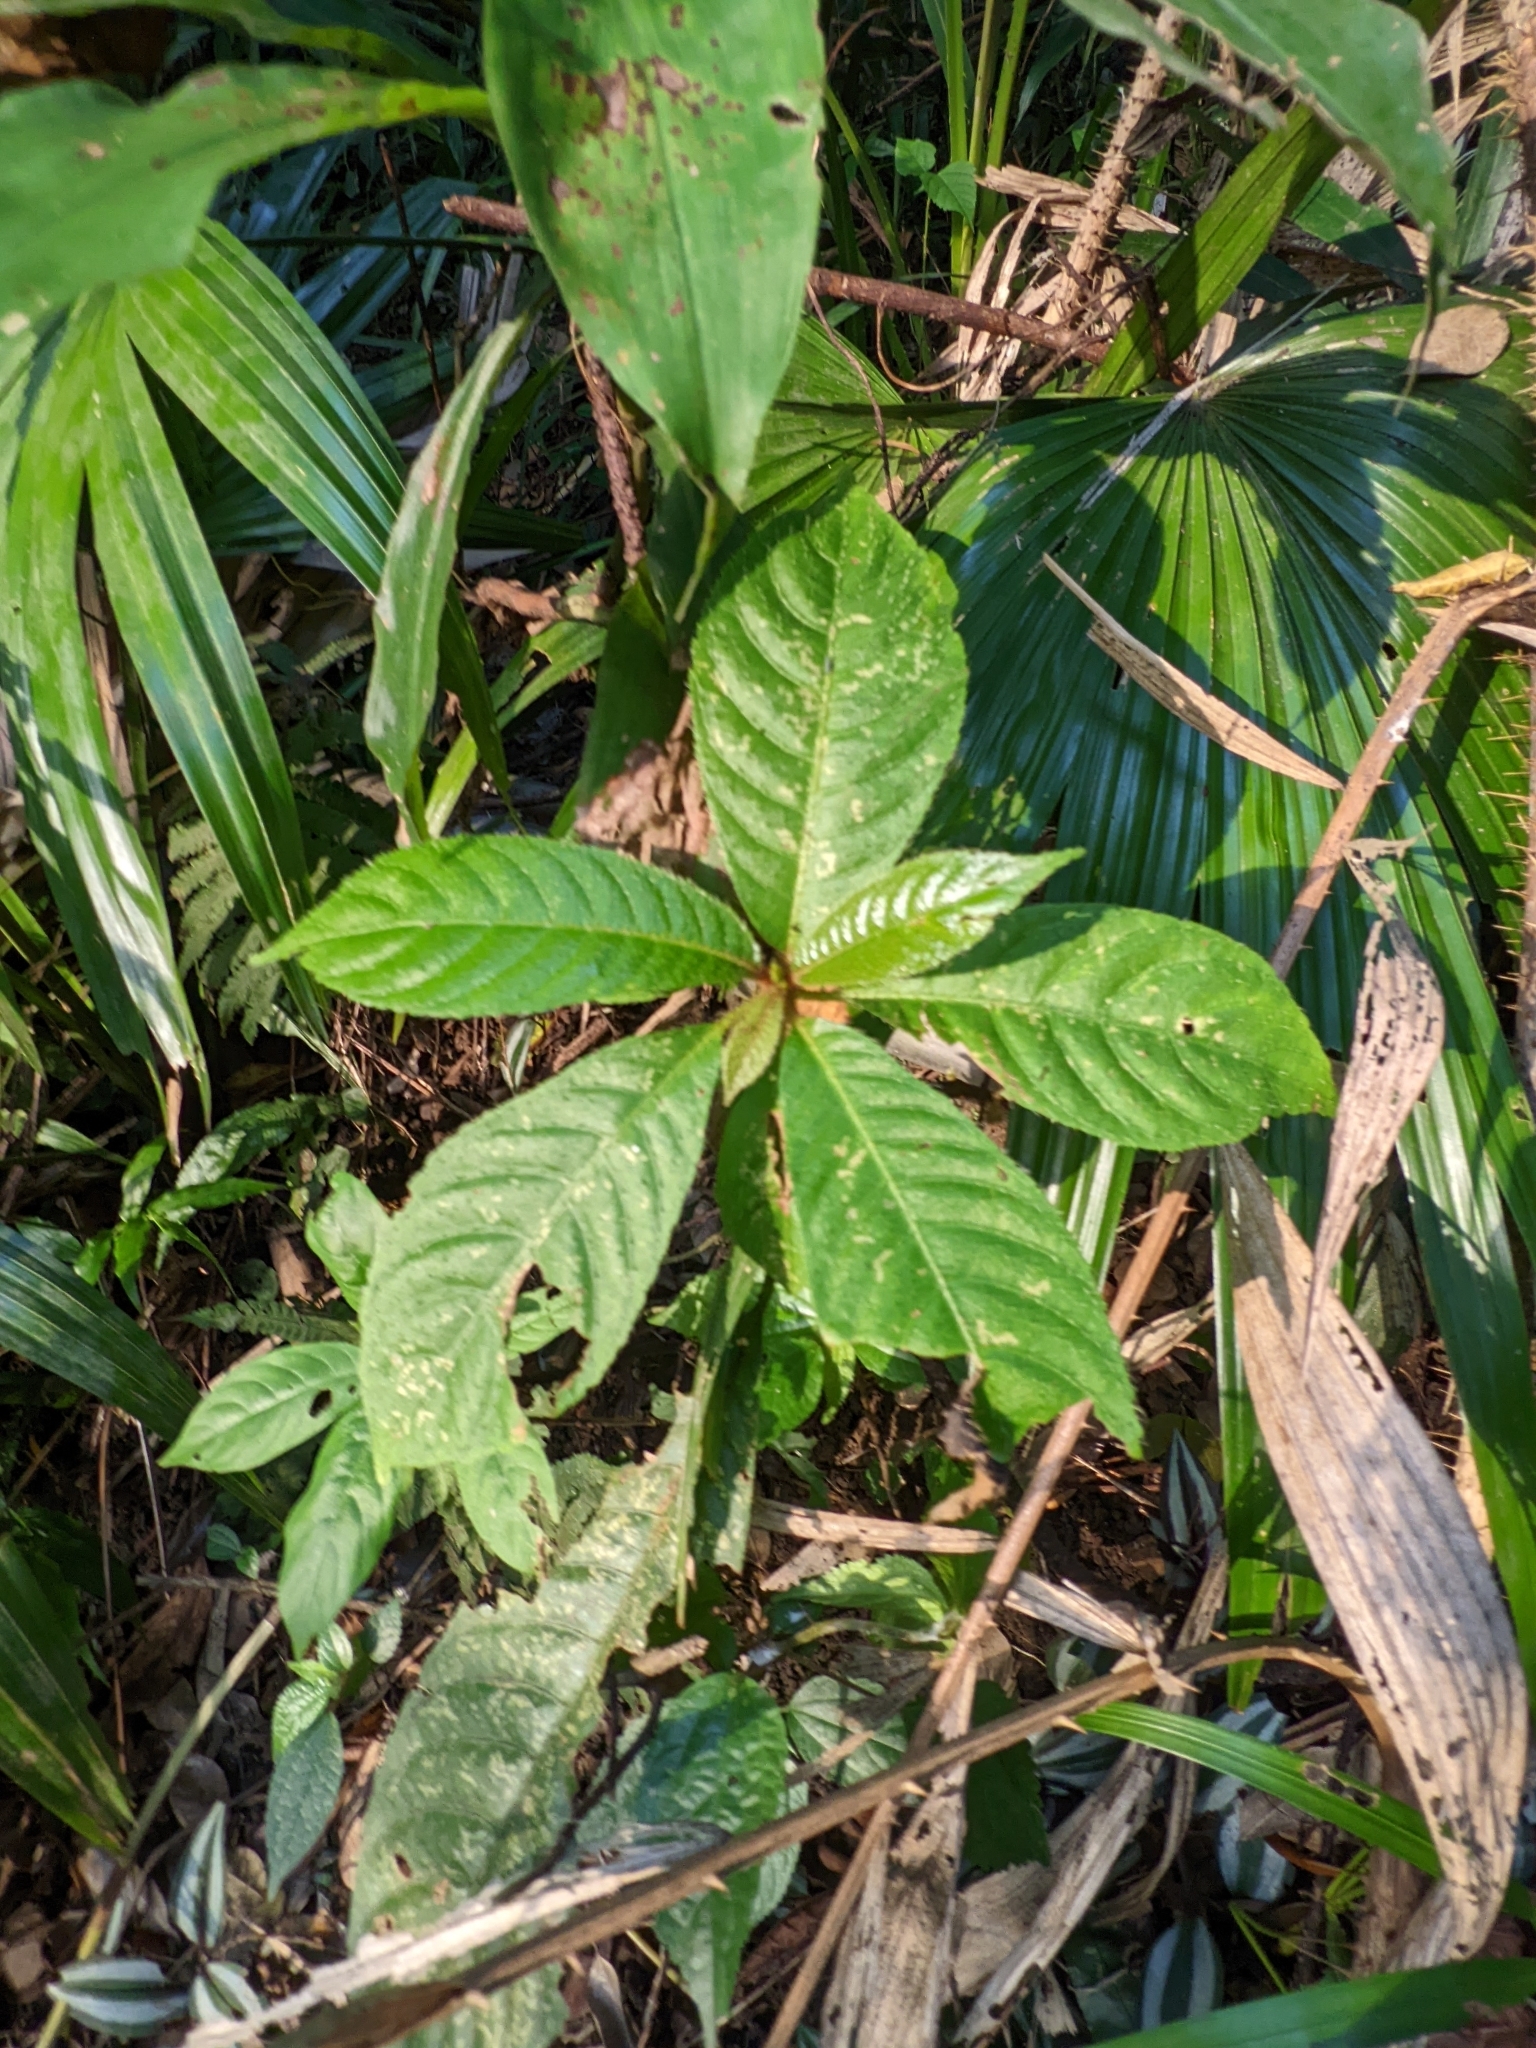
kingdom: Plantae
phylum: Tracheophyta
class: Magnoliopsida
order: Ericales
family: Actinidiaceae
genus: Saurauia
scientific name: Saurauia tristyla
